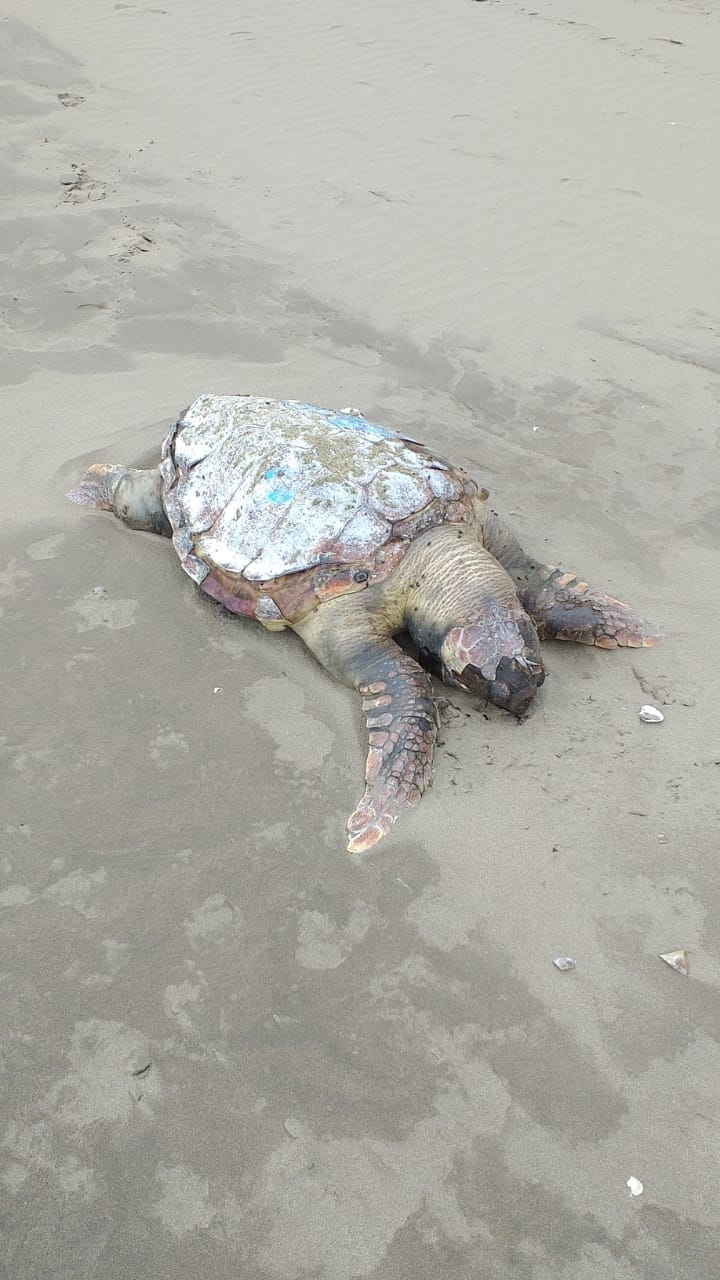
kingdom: Animalia
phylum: Chordata
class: Testudines
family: Cheloniidae
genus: Caretta
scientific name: Caretta caretta
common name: Loggerhead sea turtle
